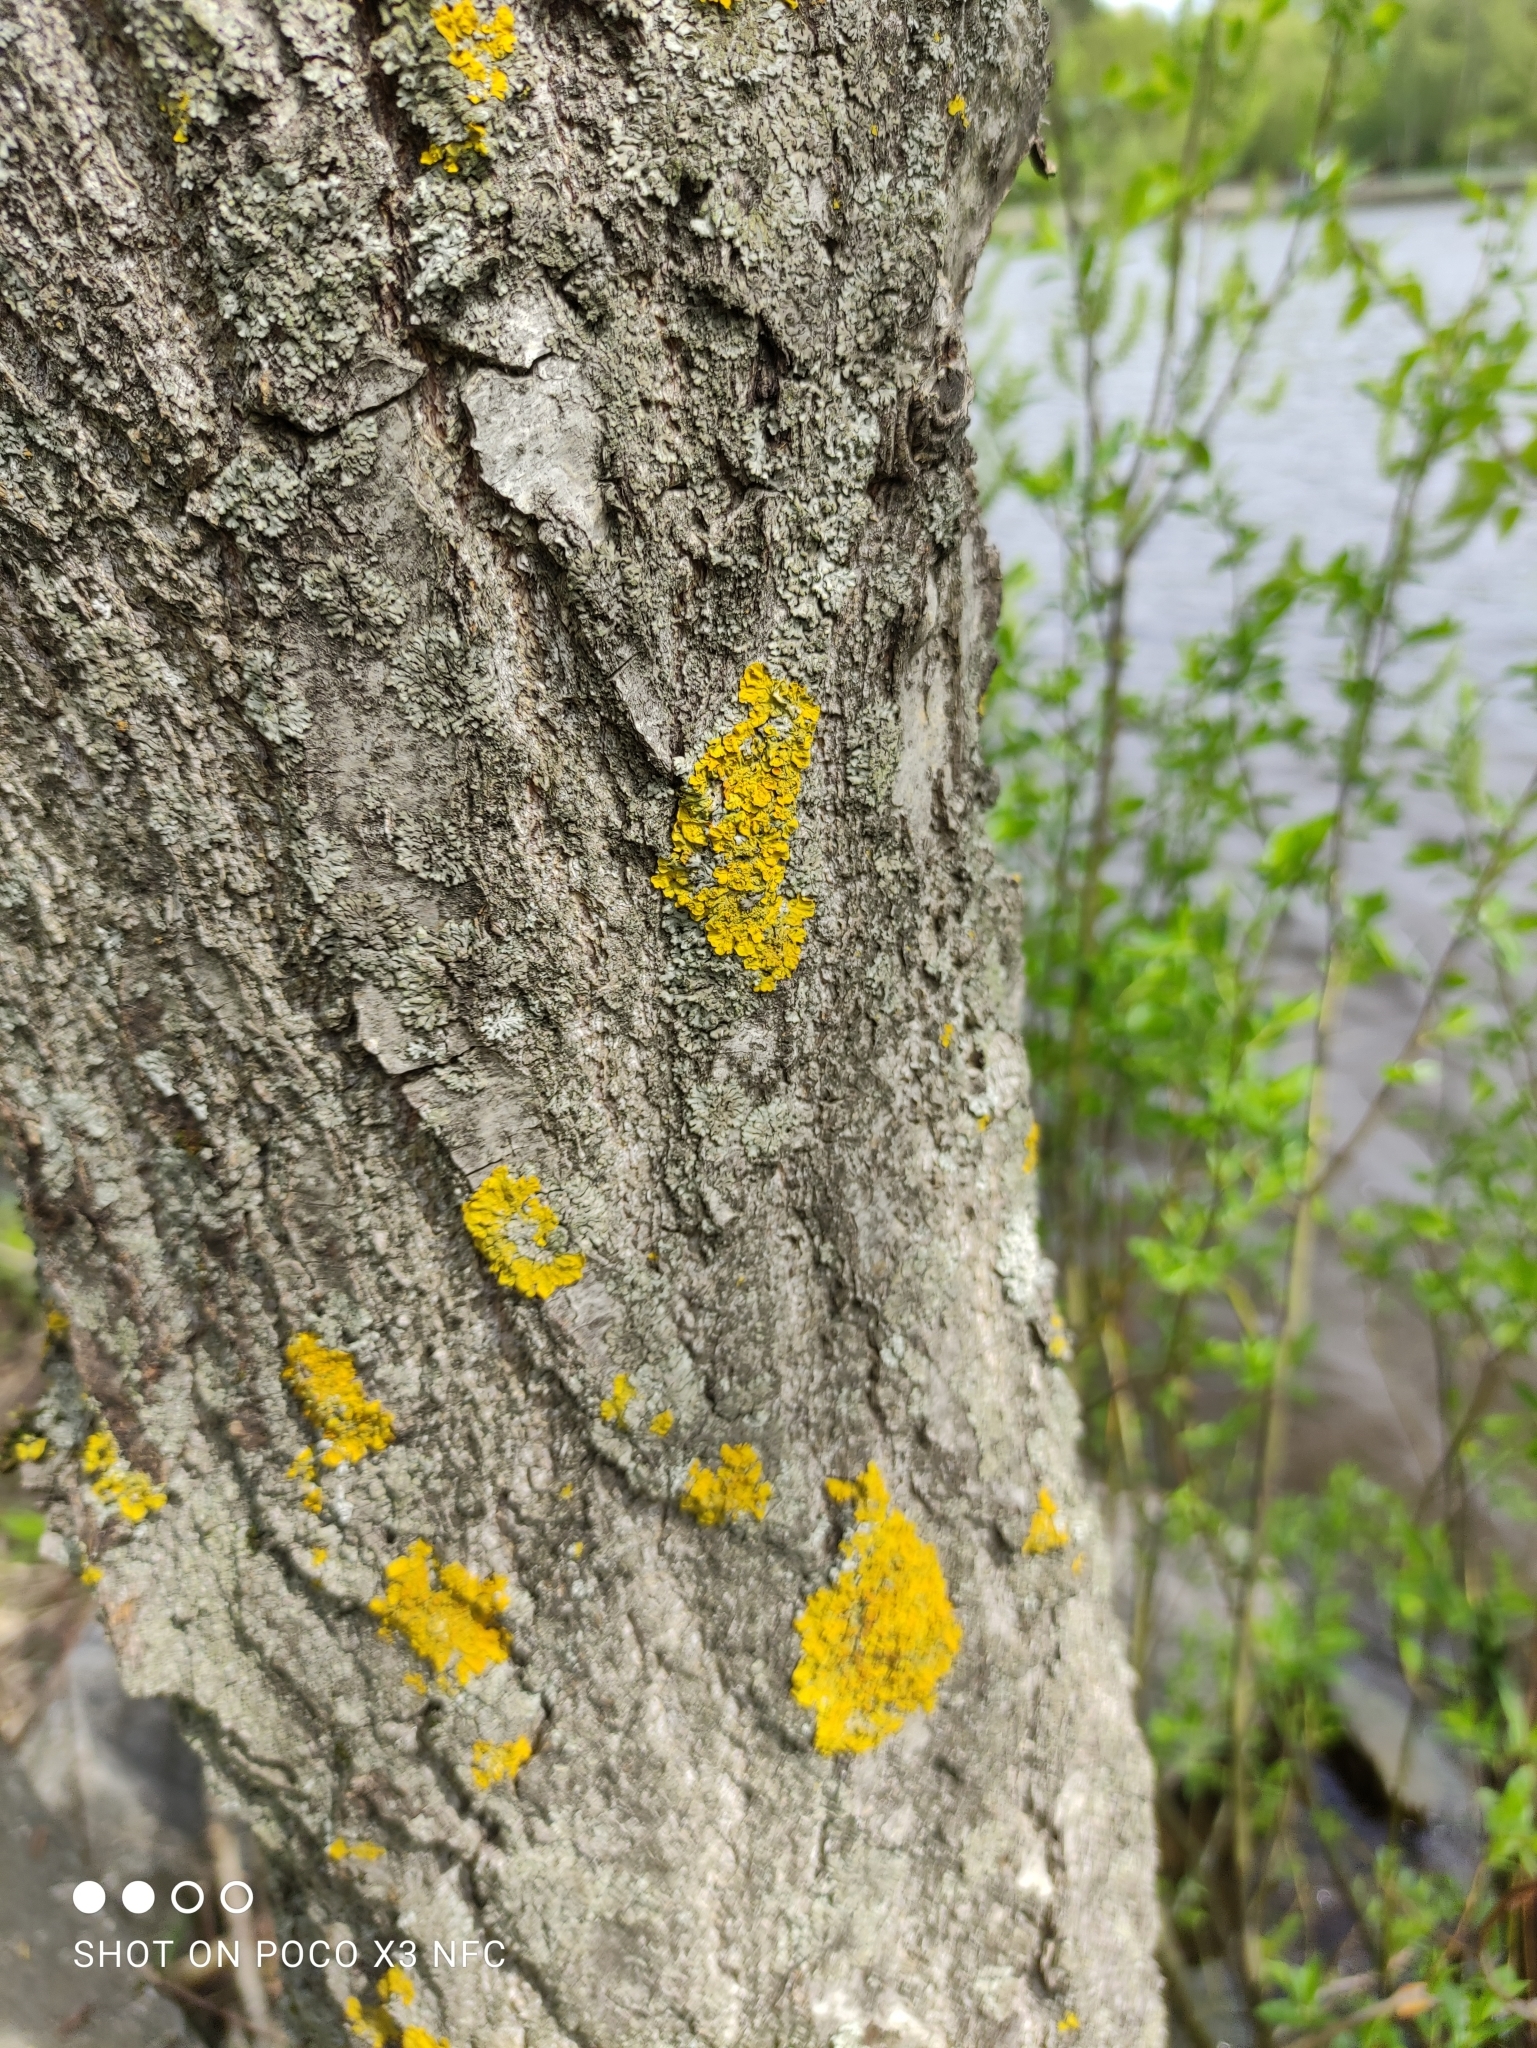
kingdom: Fungi
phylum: Ascomycota
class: Lecanoromycetes
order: Teloschistales
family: Teloschistaceae
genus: Xanthoria
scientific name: Xanthoria parietina
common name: Common orange lichen
